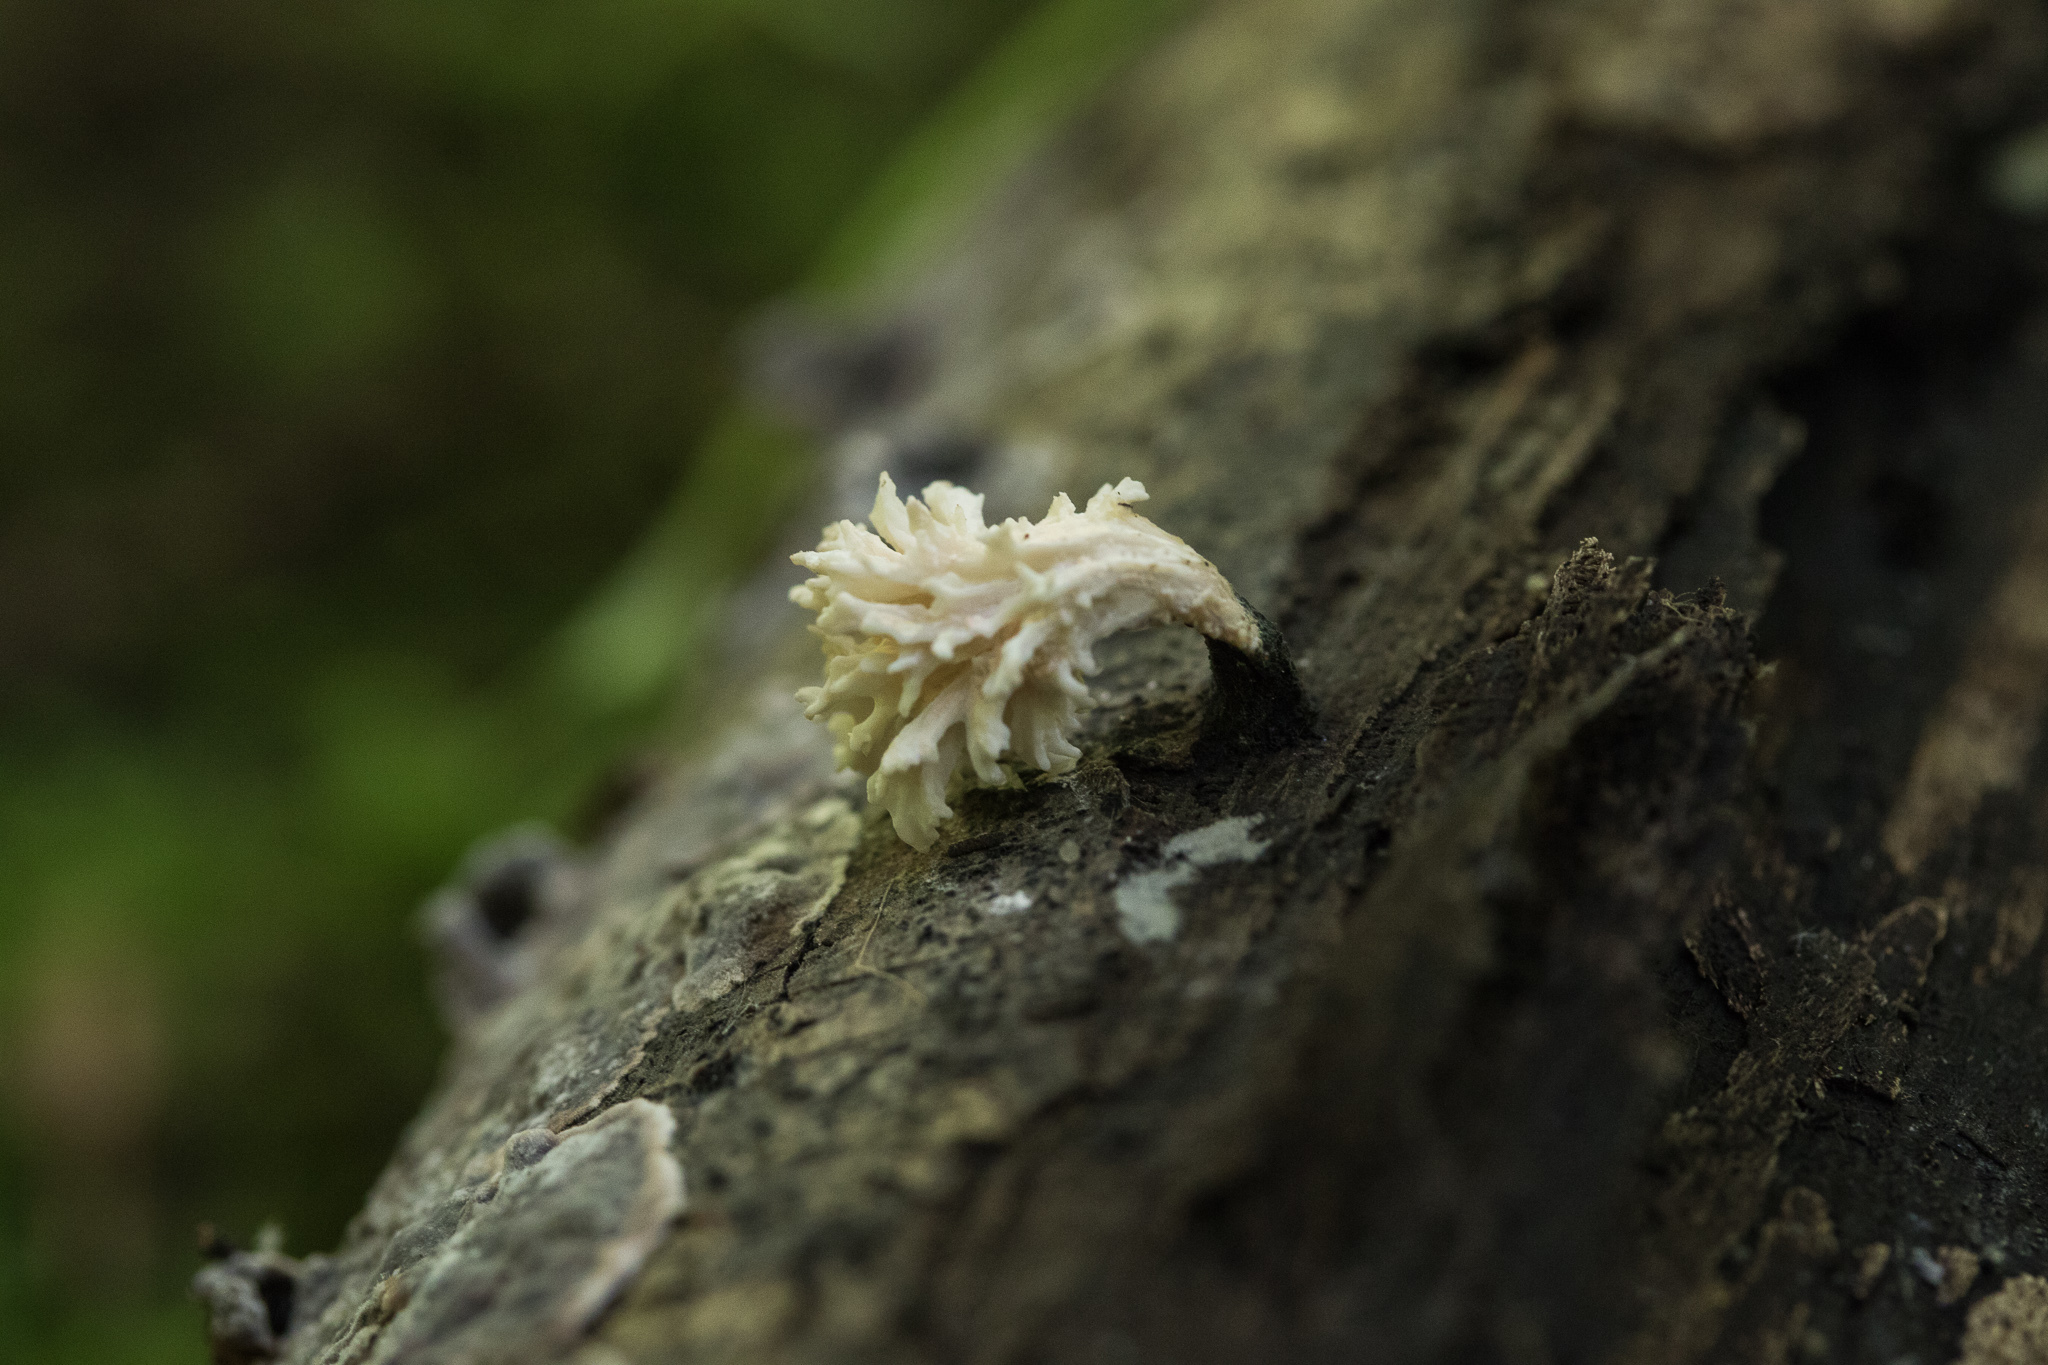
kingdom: Fungi
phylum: Ascomycota
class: Sordariomycetes
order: Xylariales
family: Xylariaceae
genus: Xylaria
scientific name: Xylaria cubensis
